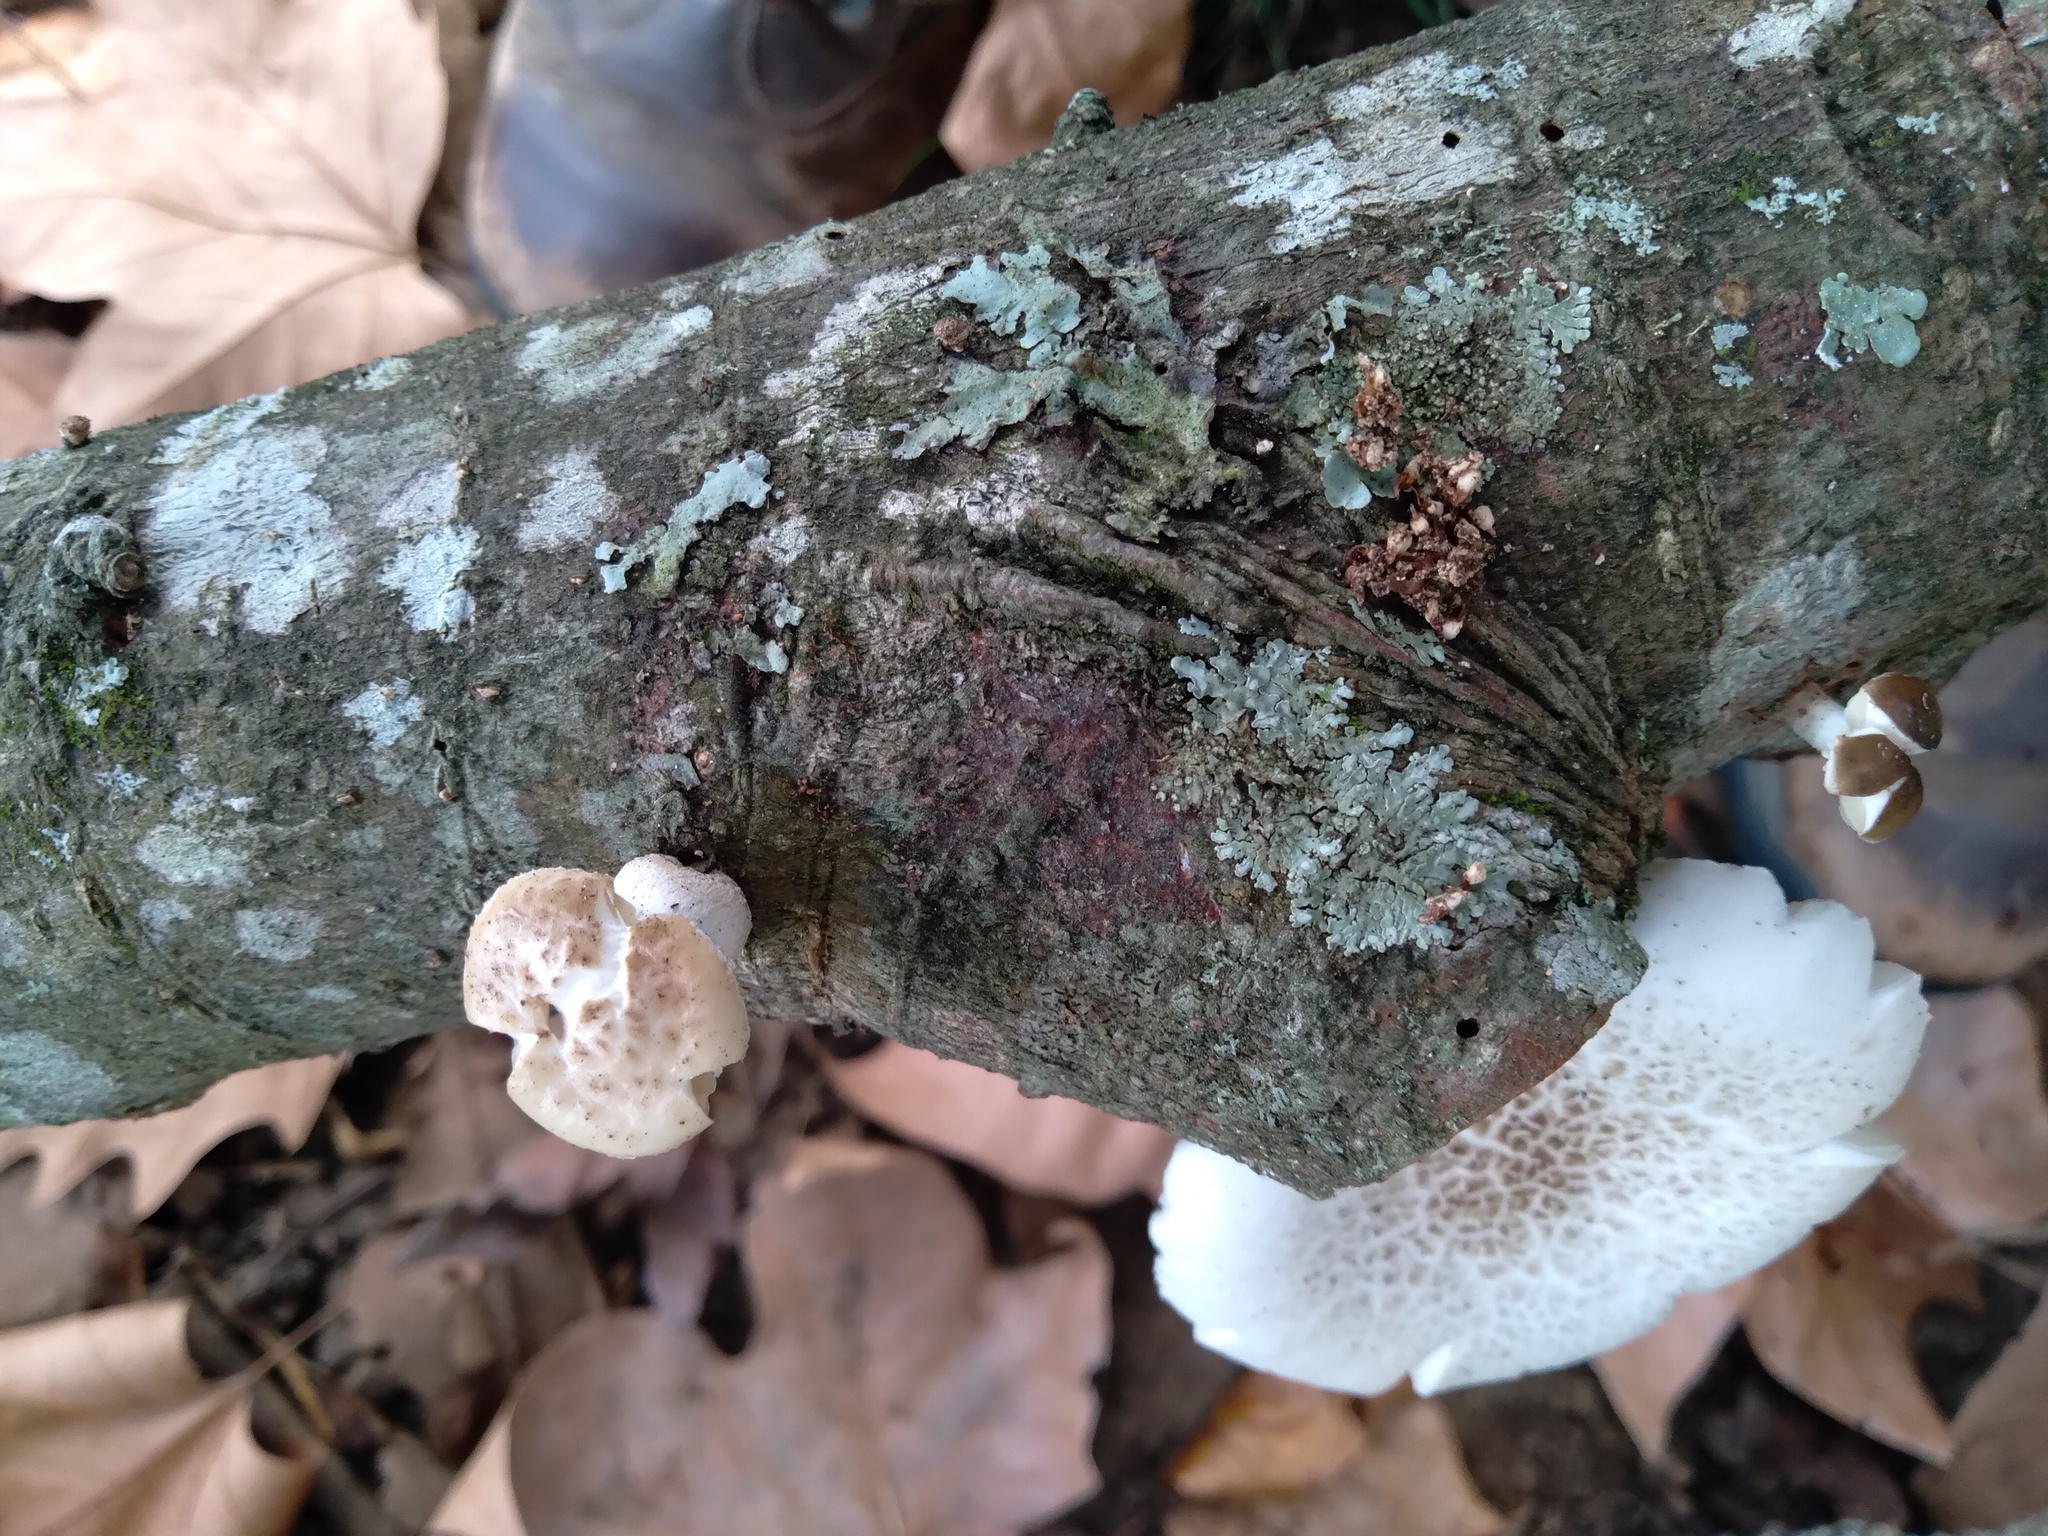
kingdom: Fungi
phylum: Basidiomycota
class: Agaricomycetes
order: Agaricales
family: Physalacriaceae
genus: Oudemansiella
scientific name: Oudemansiella australis
